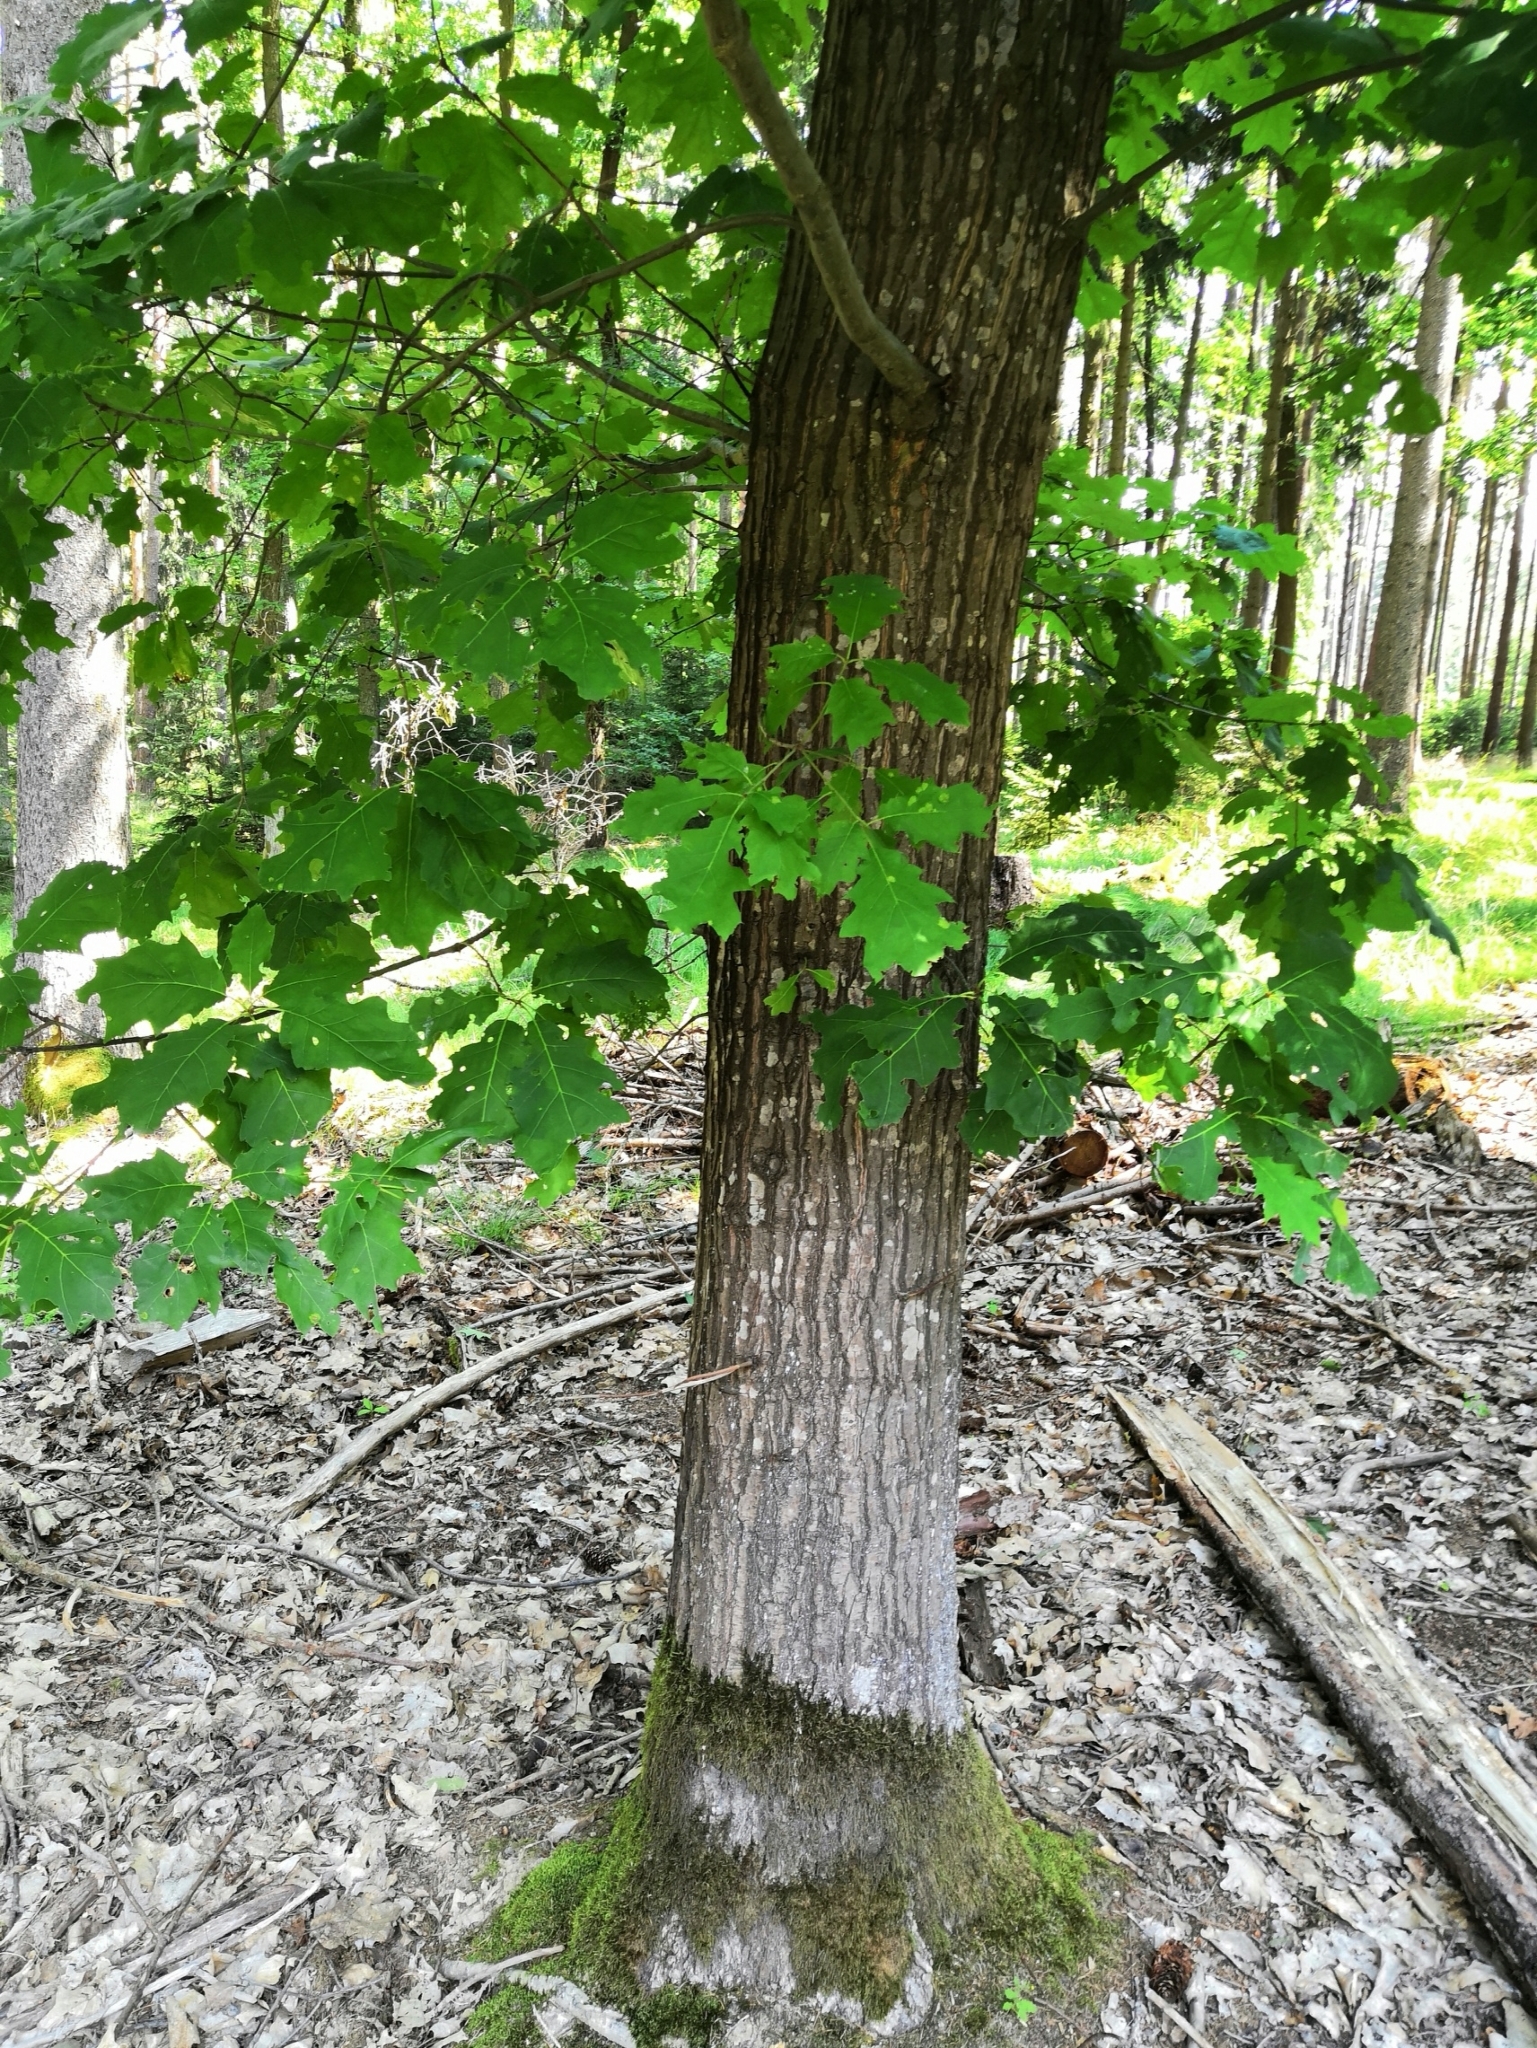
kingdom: Plantae
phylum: Tracheophyta
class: Magnoliopsida
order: Fagales
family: Fagaceae
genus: Quercus
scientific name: Quercus rubra
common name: Red oak
